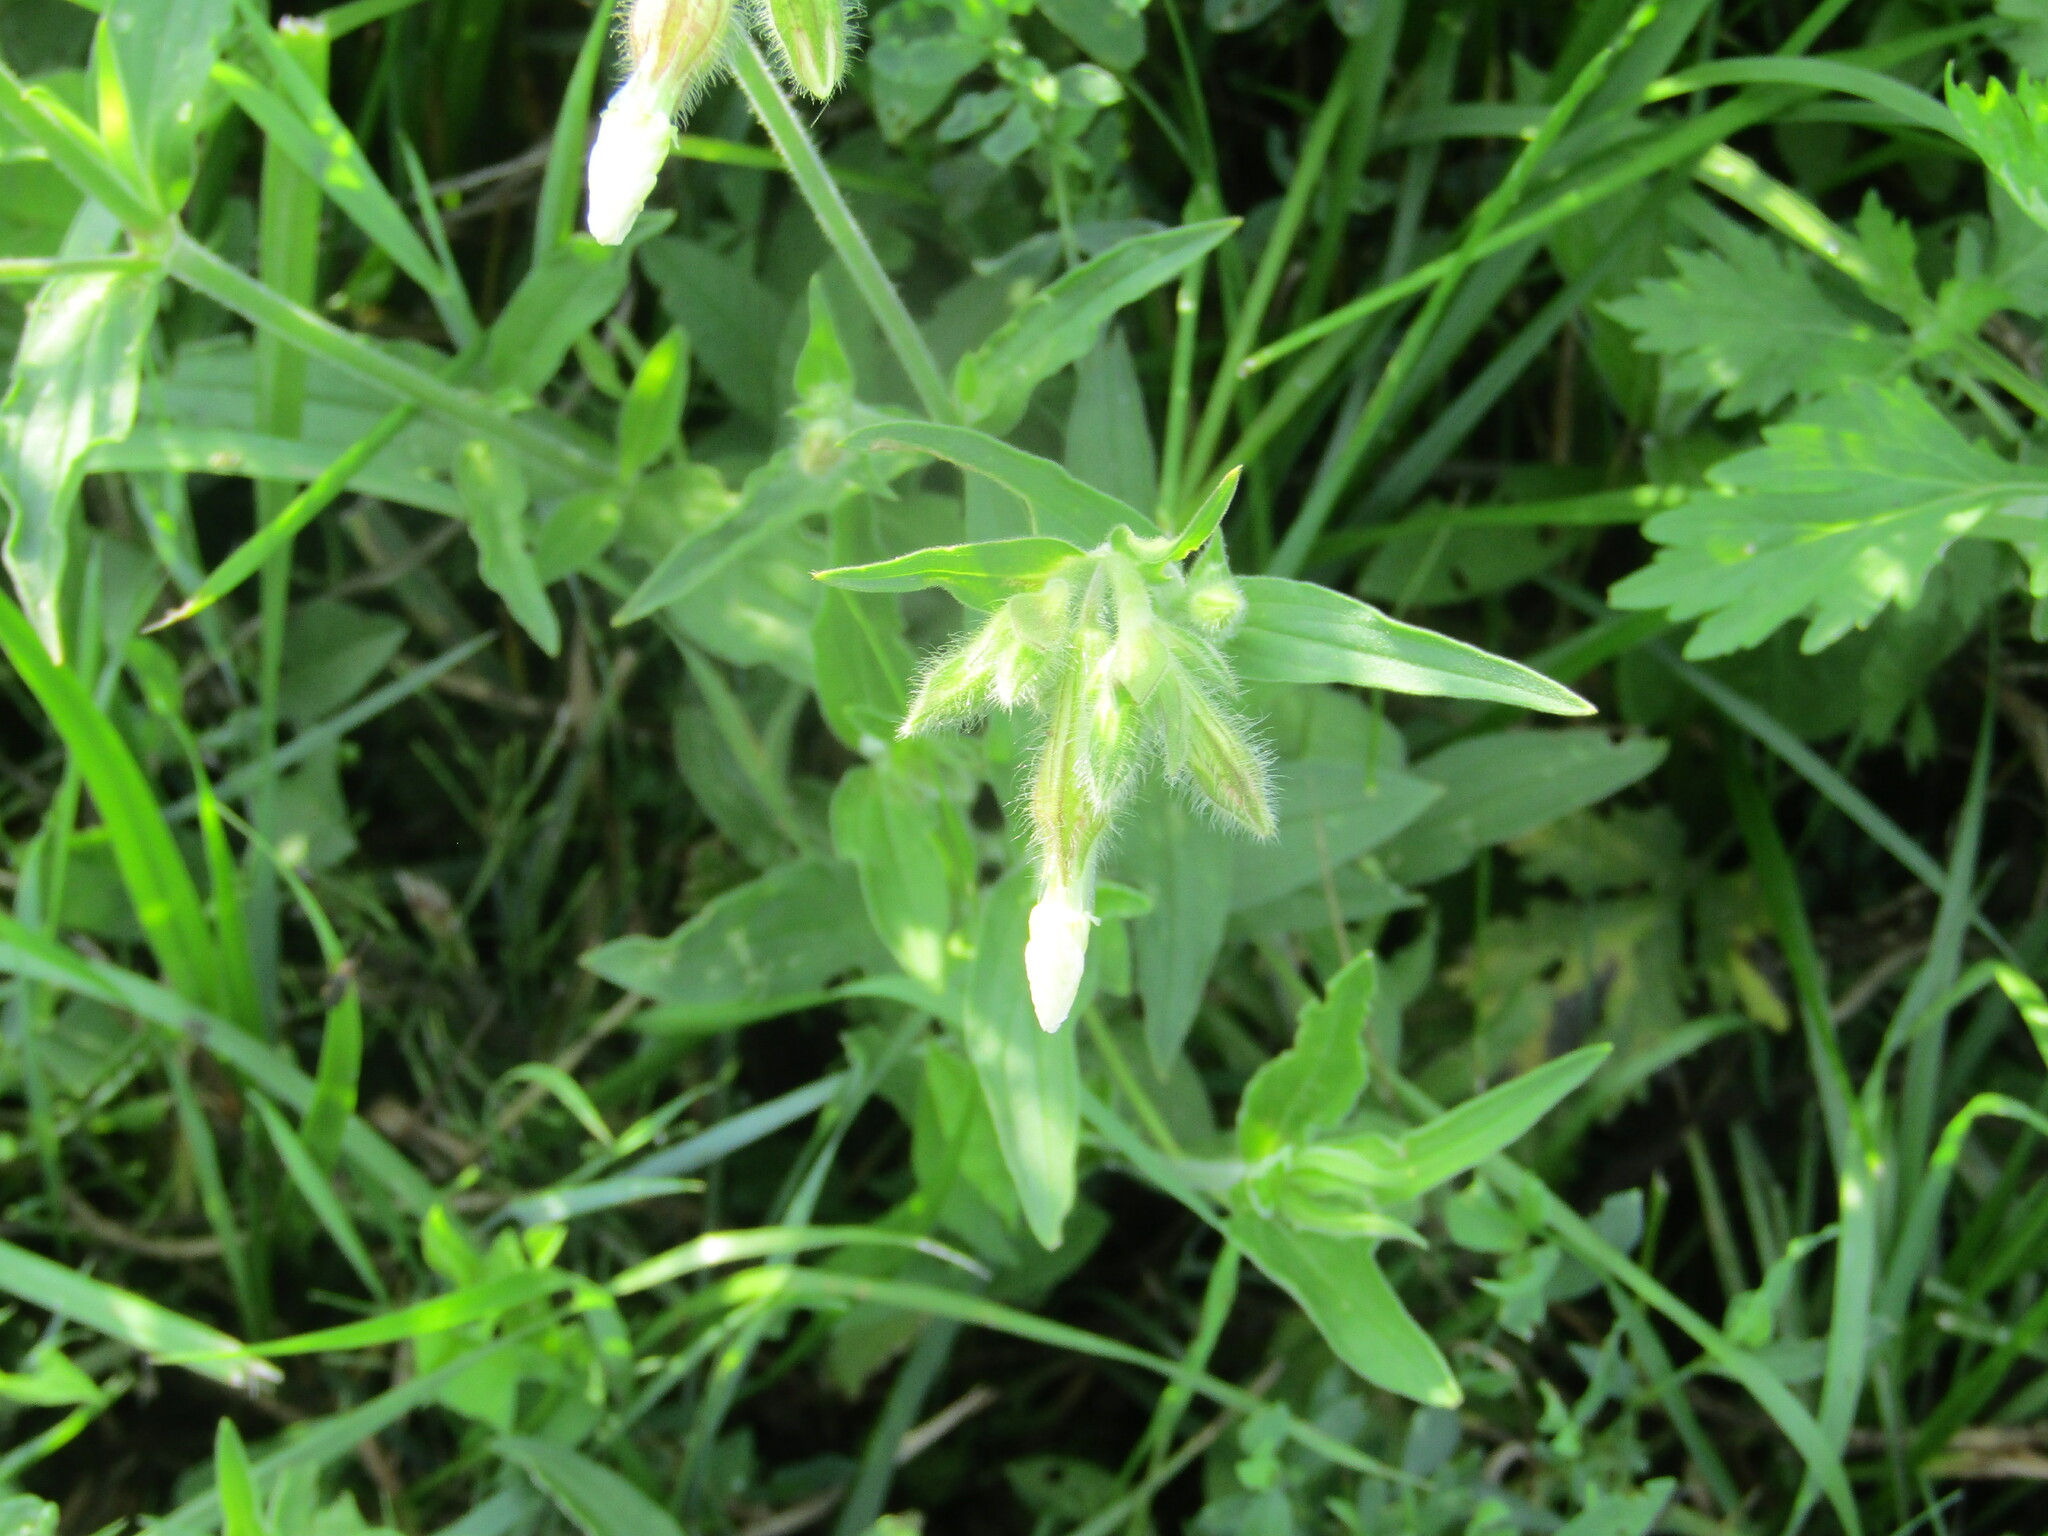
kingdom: Plantae
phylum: Tracheophyta
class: Magnoliopsida
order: Caryophyllales
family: Caryophyllaceae
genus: Silene
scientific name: Silene latifolia
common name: White campion
